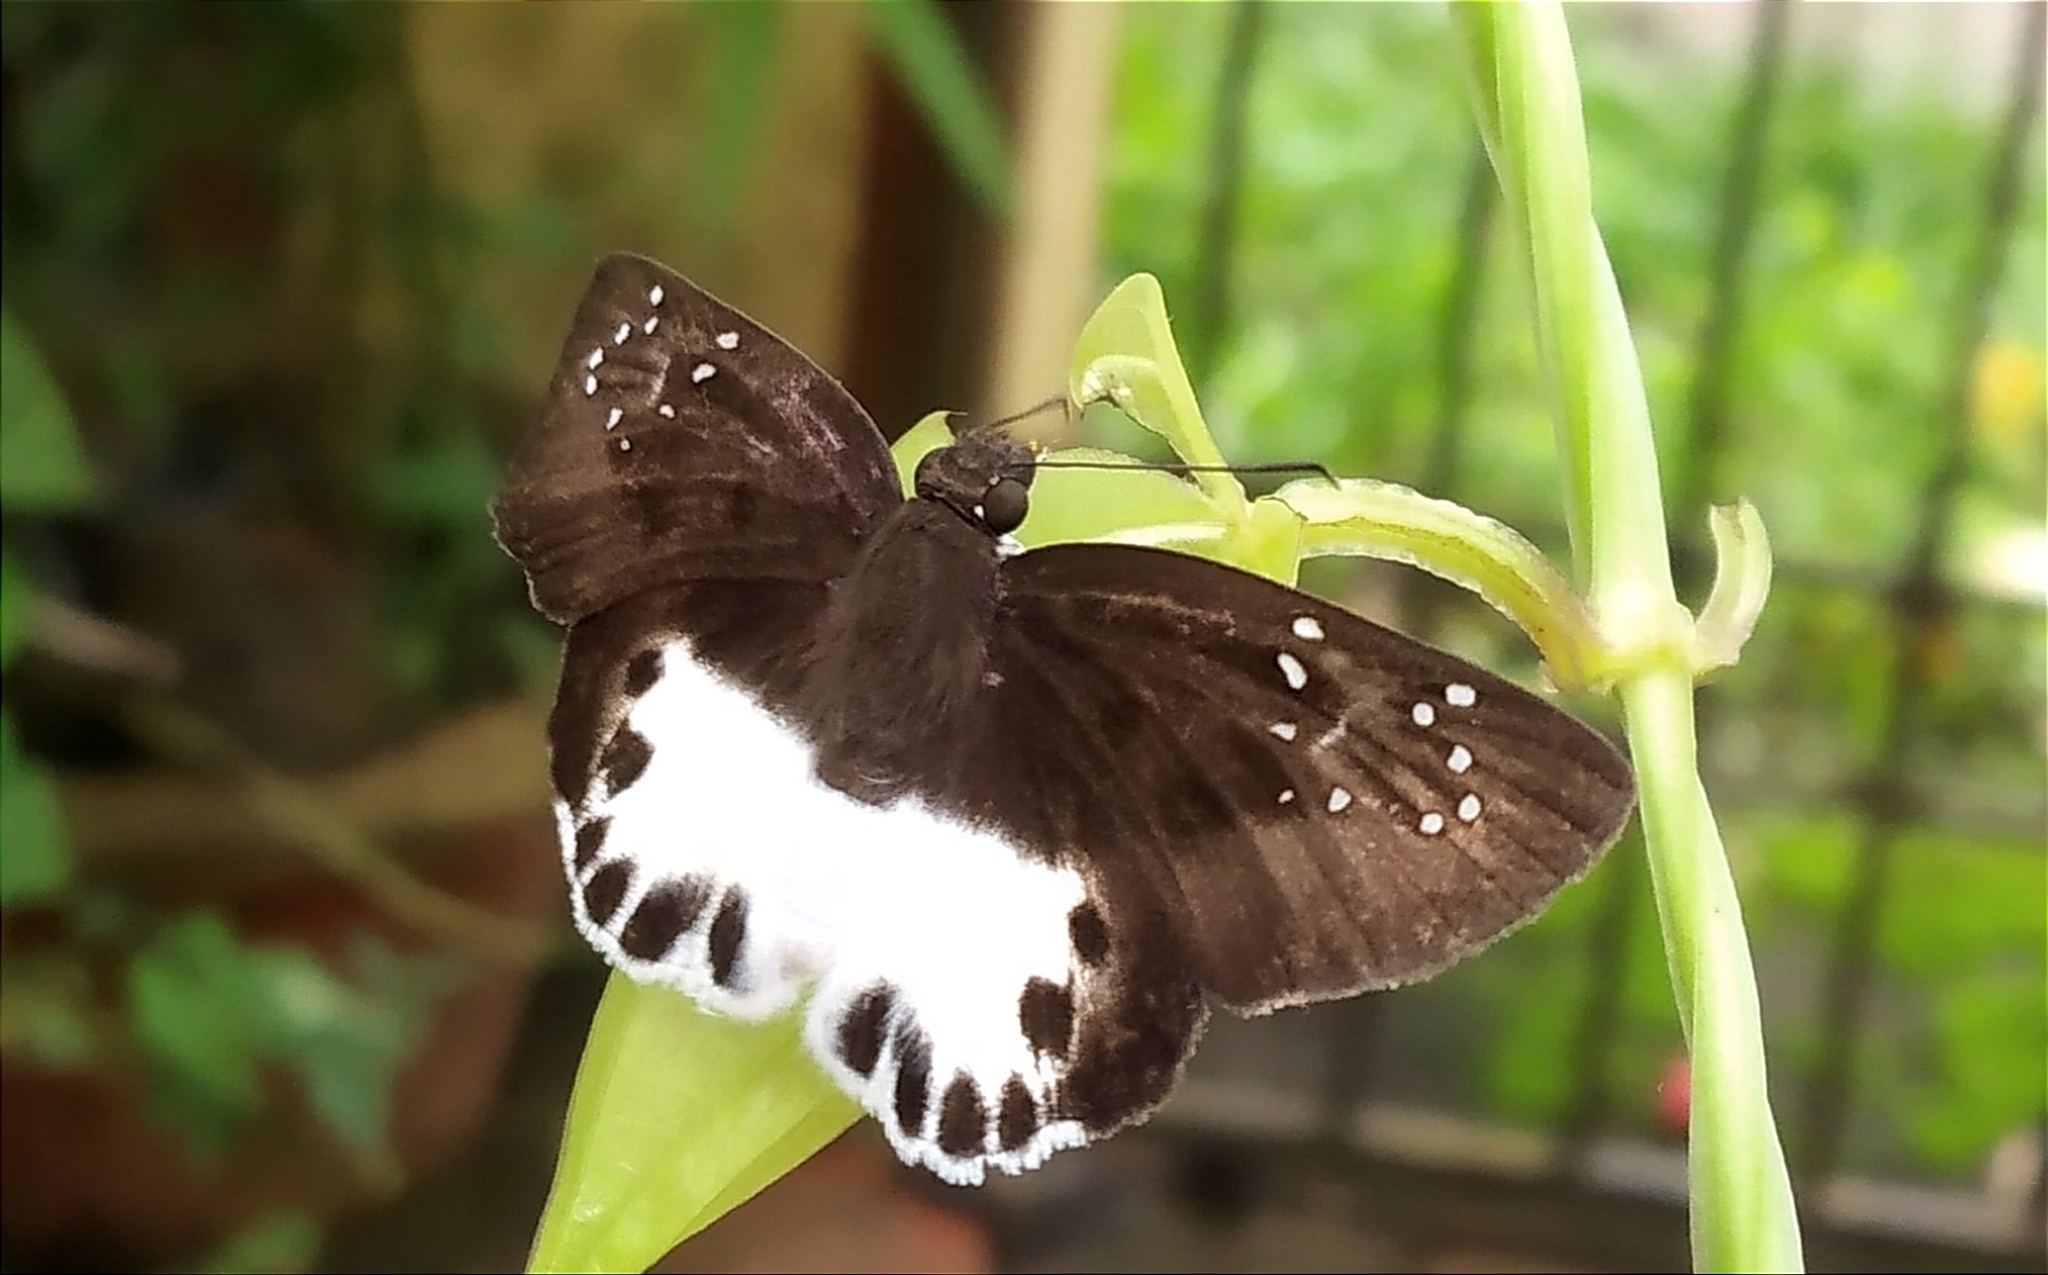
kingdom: Animalia
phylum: Arthropoda
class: Insecta
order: Lepidoptera
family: Hesperiidae
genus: Tagiades
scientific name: Tagiades litigiosa
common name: Water snow flat
